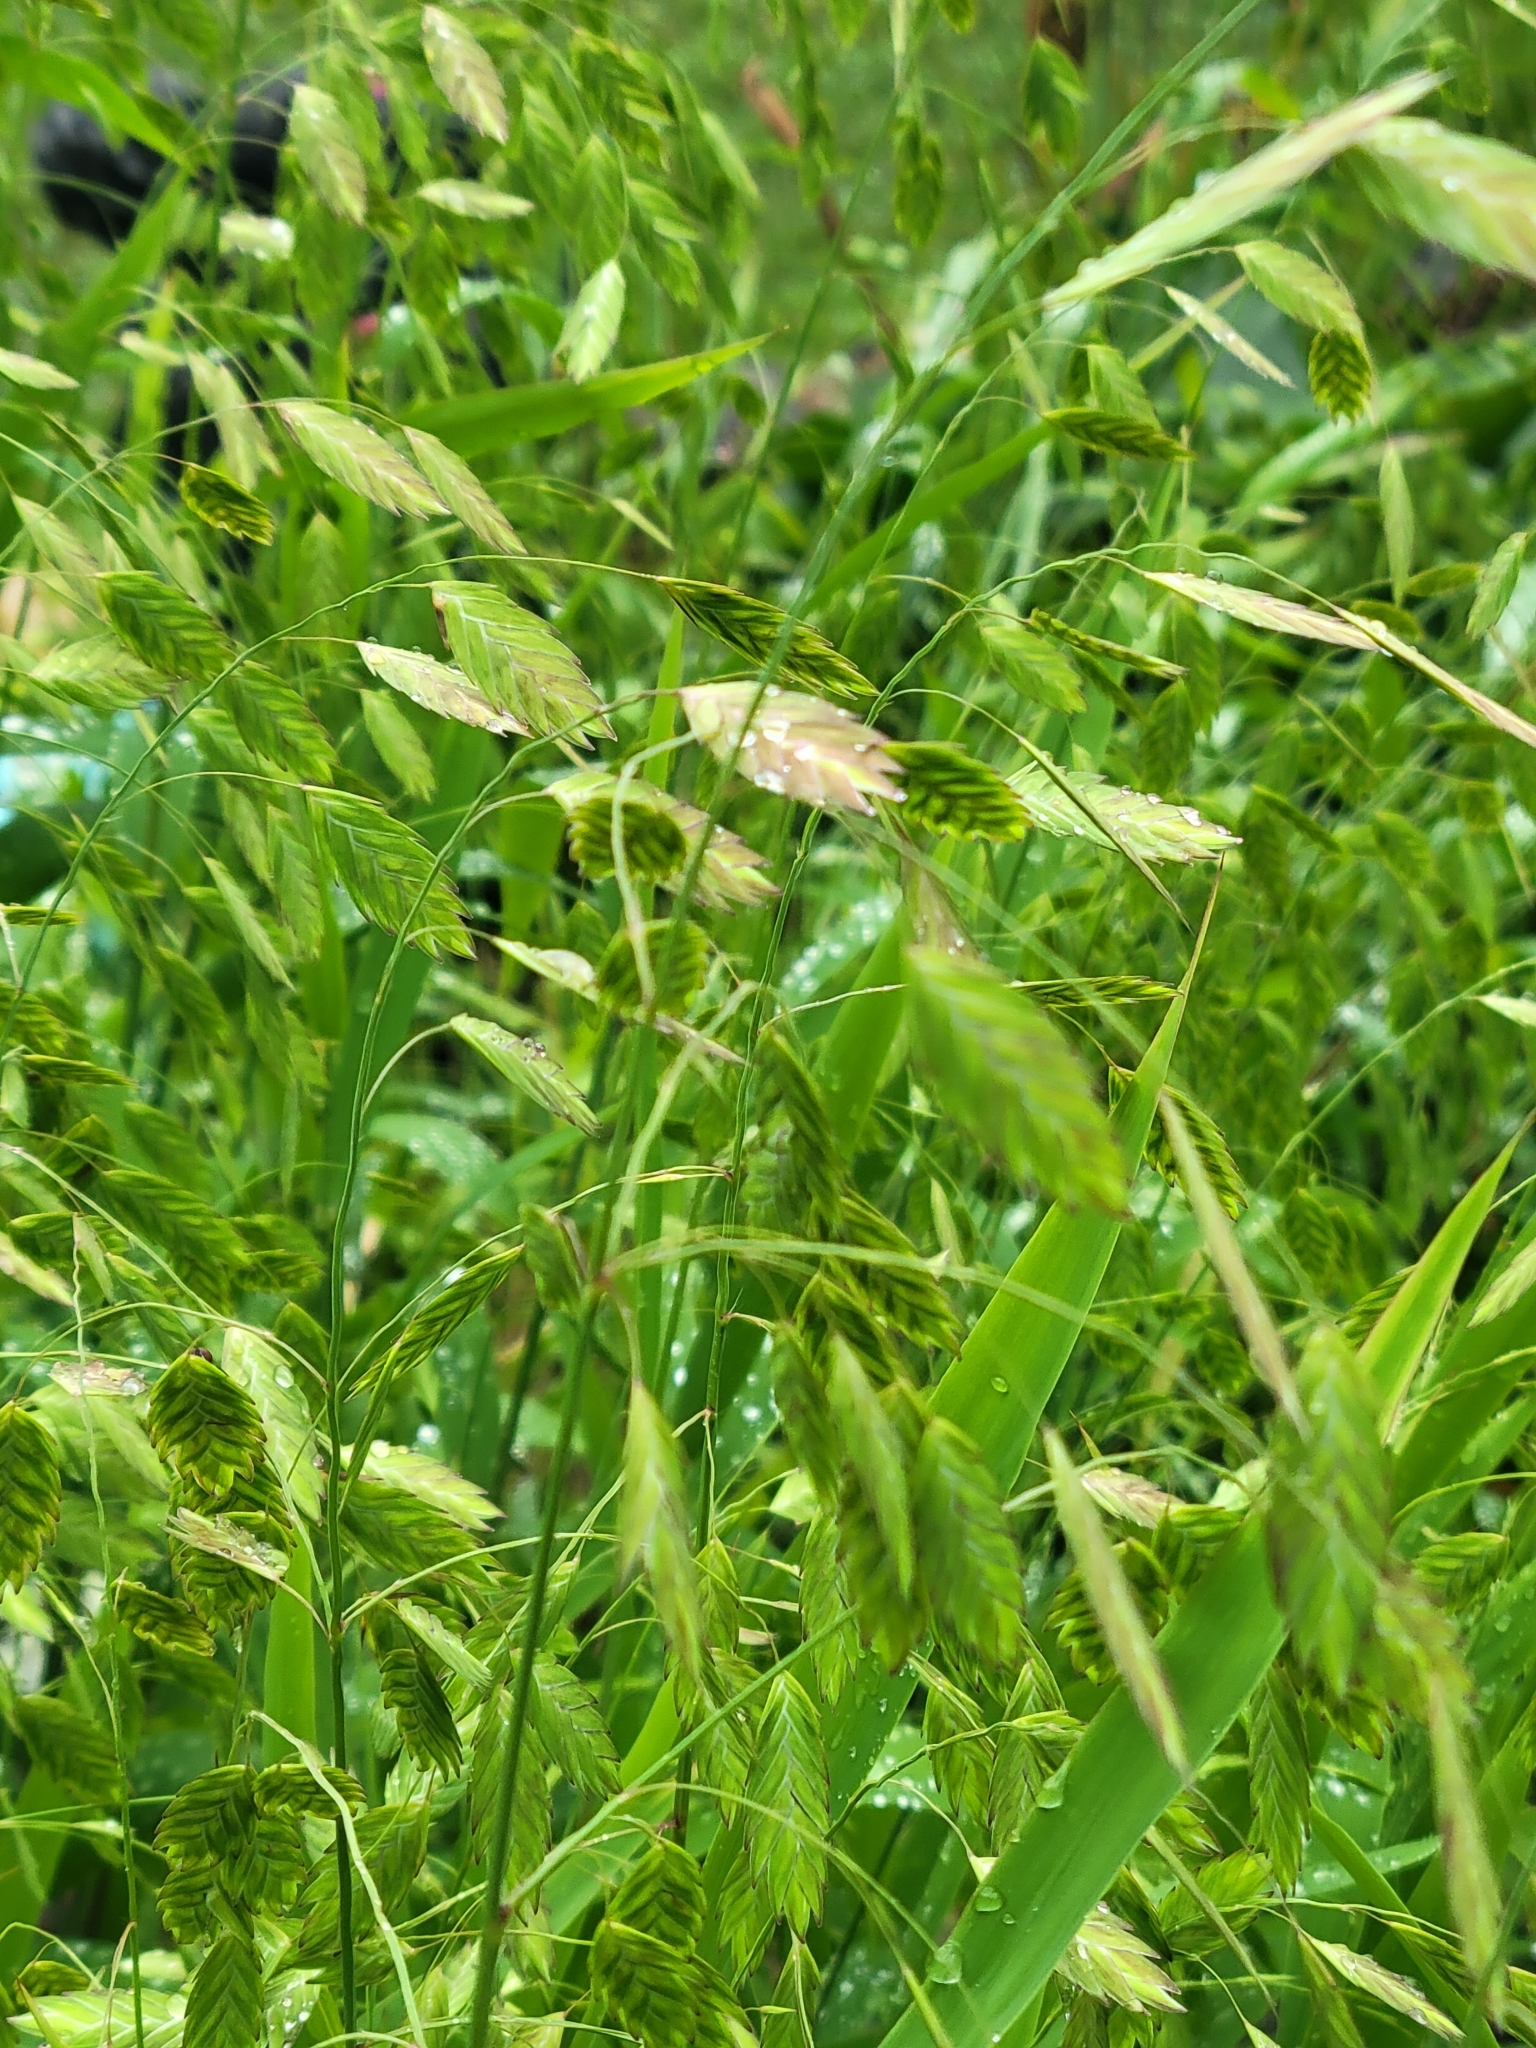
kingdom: Plantae
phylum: Tracheophyta
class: Liliopsida
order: Poales
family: Poaceae
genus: Chasmanthium
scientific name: Chasmanthium latifolium
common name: Broad-leaved chasmanthium
